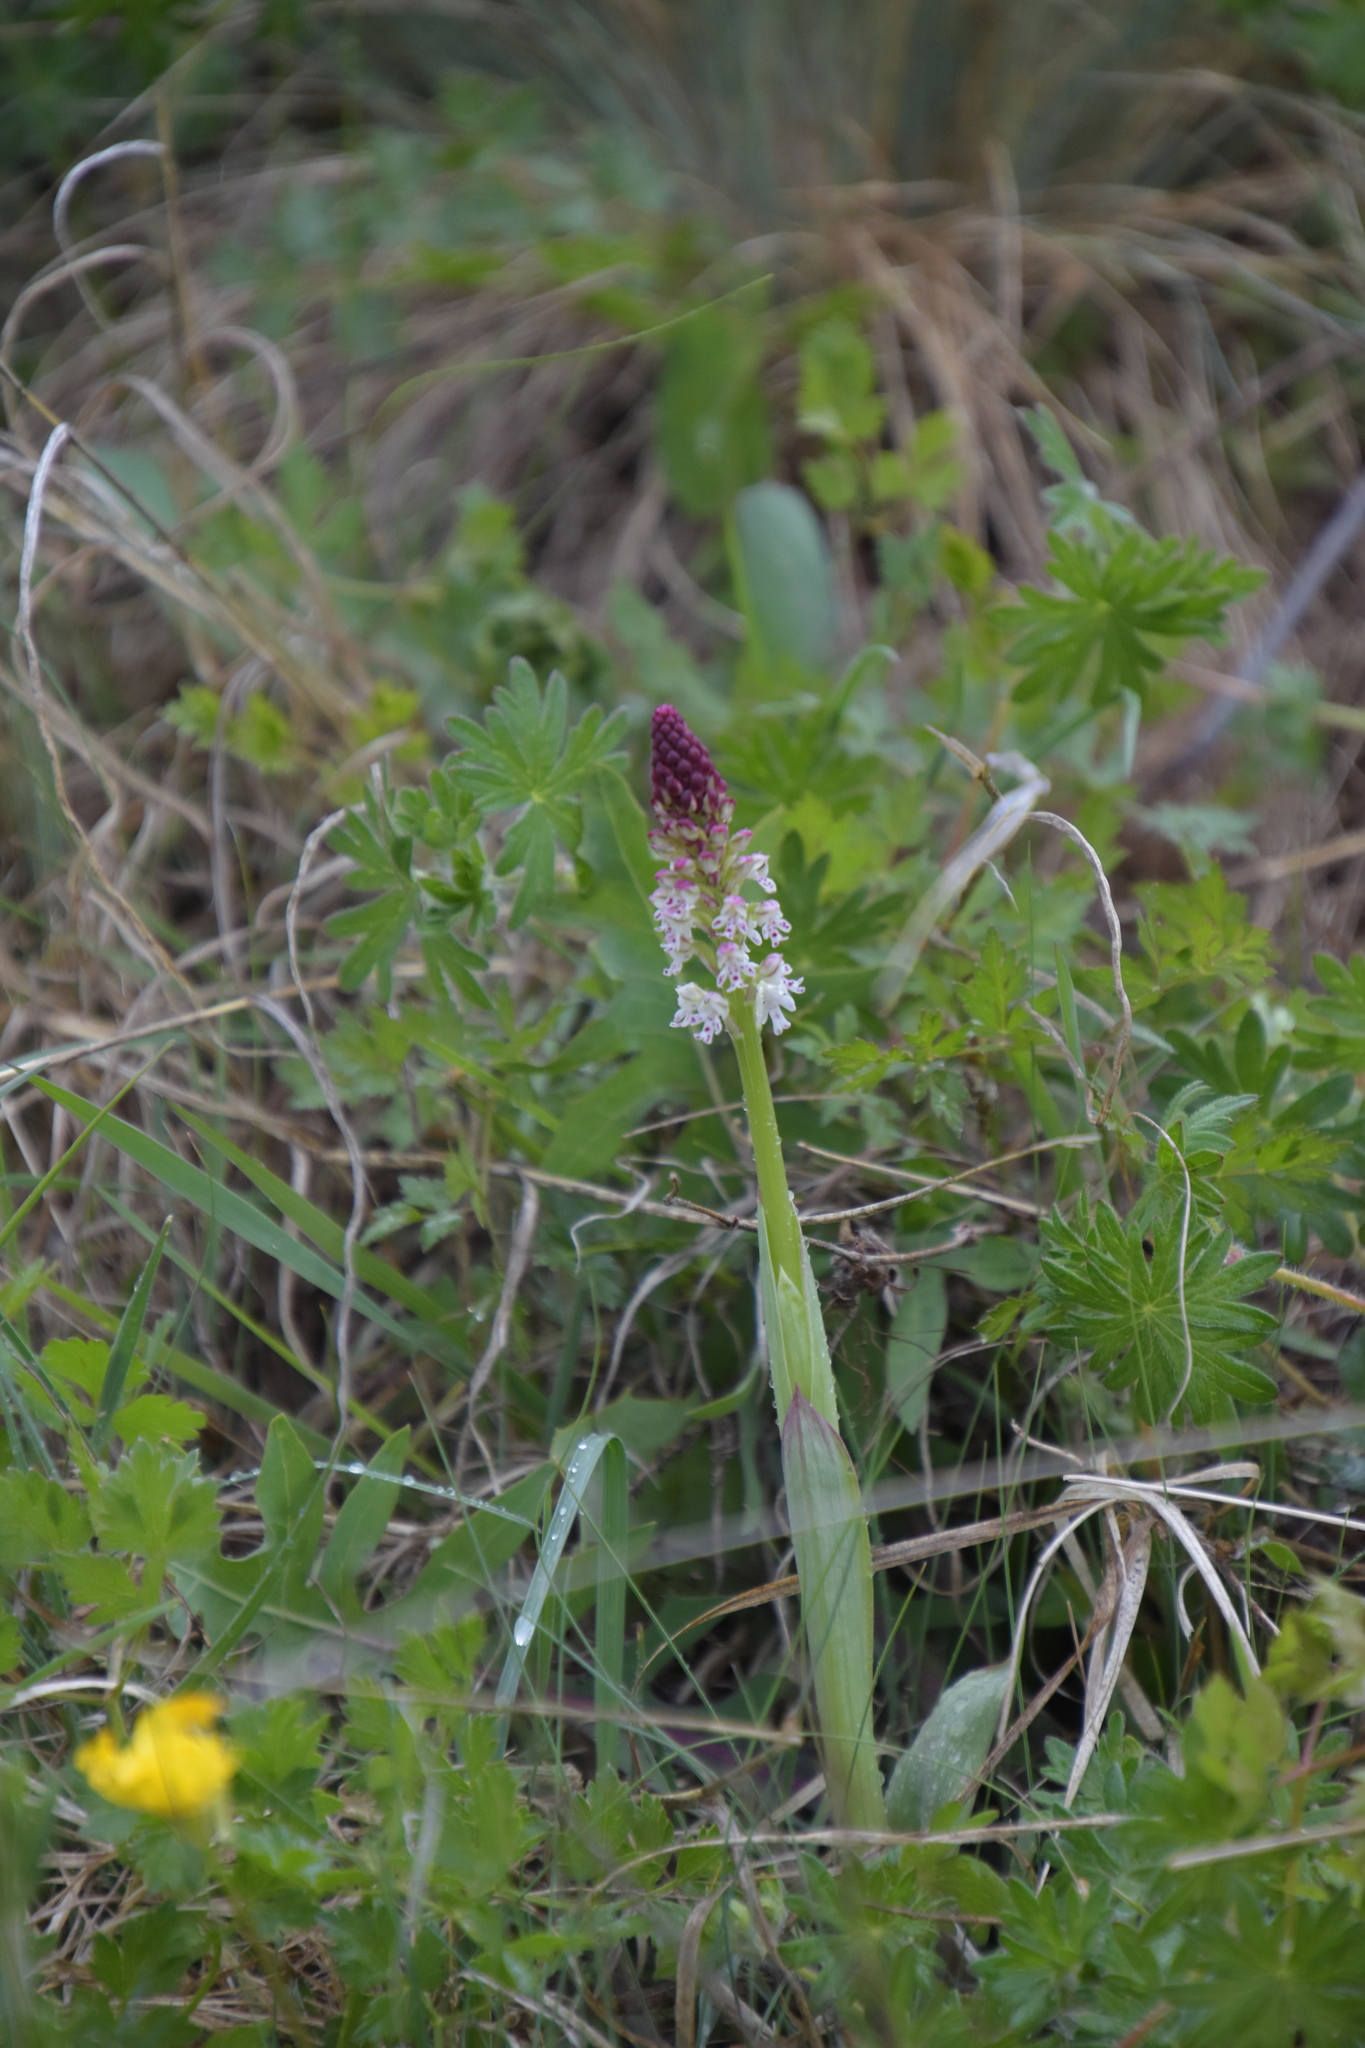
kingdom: Plantae
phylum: Tracheophyta
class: Liliopsida
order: Asparagales
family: Orchidaceae
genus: Neotinea
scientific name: Neotinea ustulata
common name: Burnt orchid
